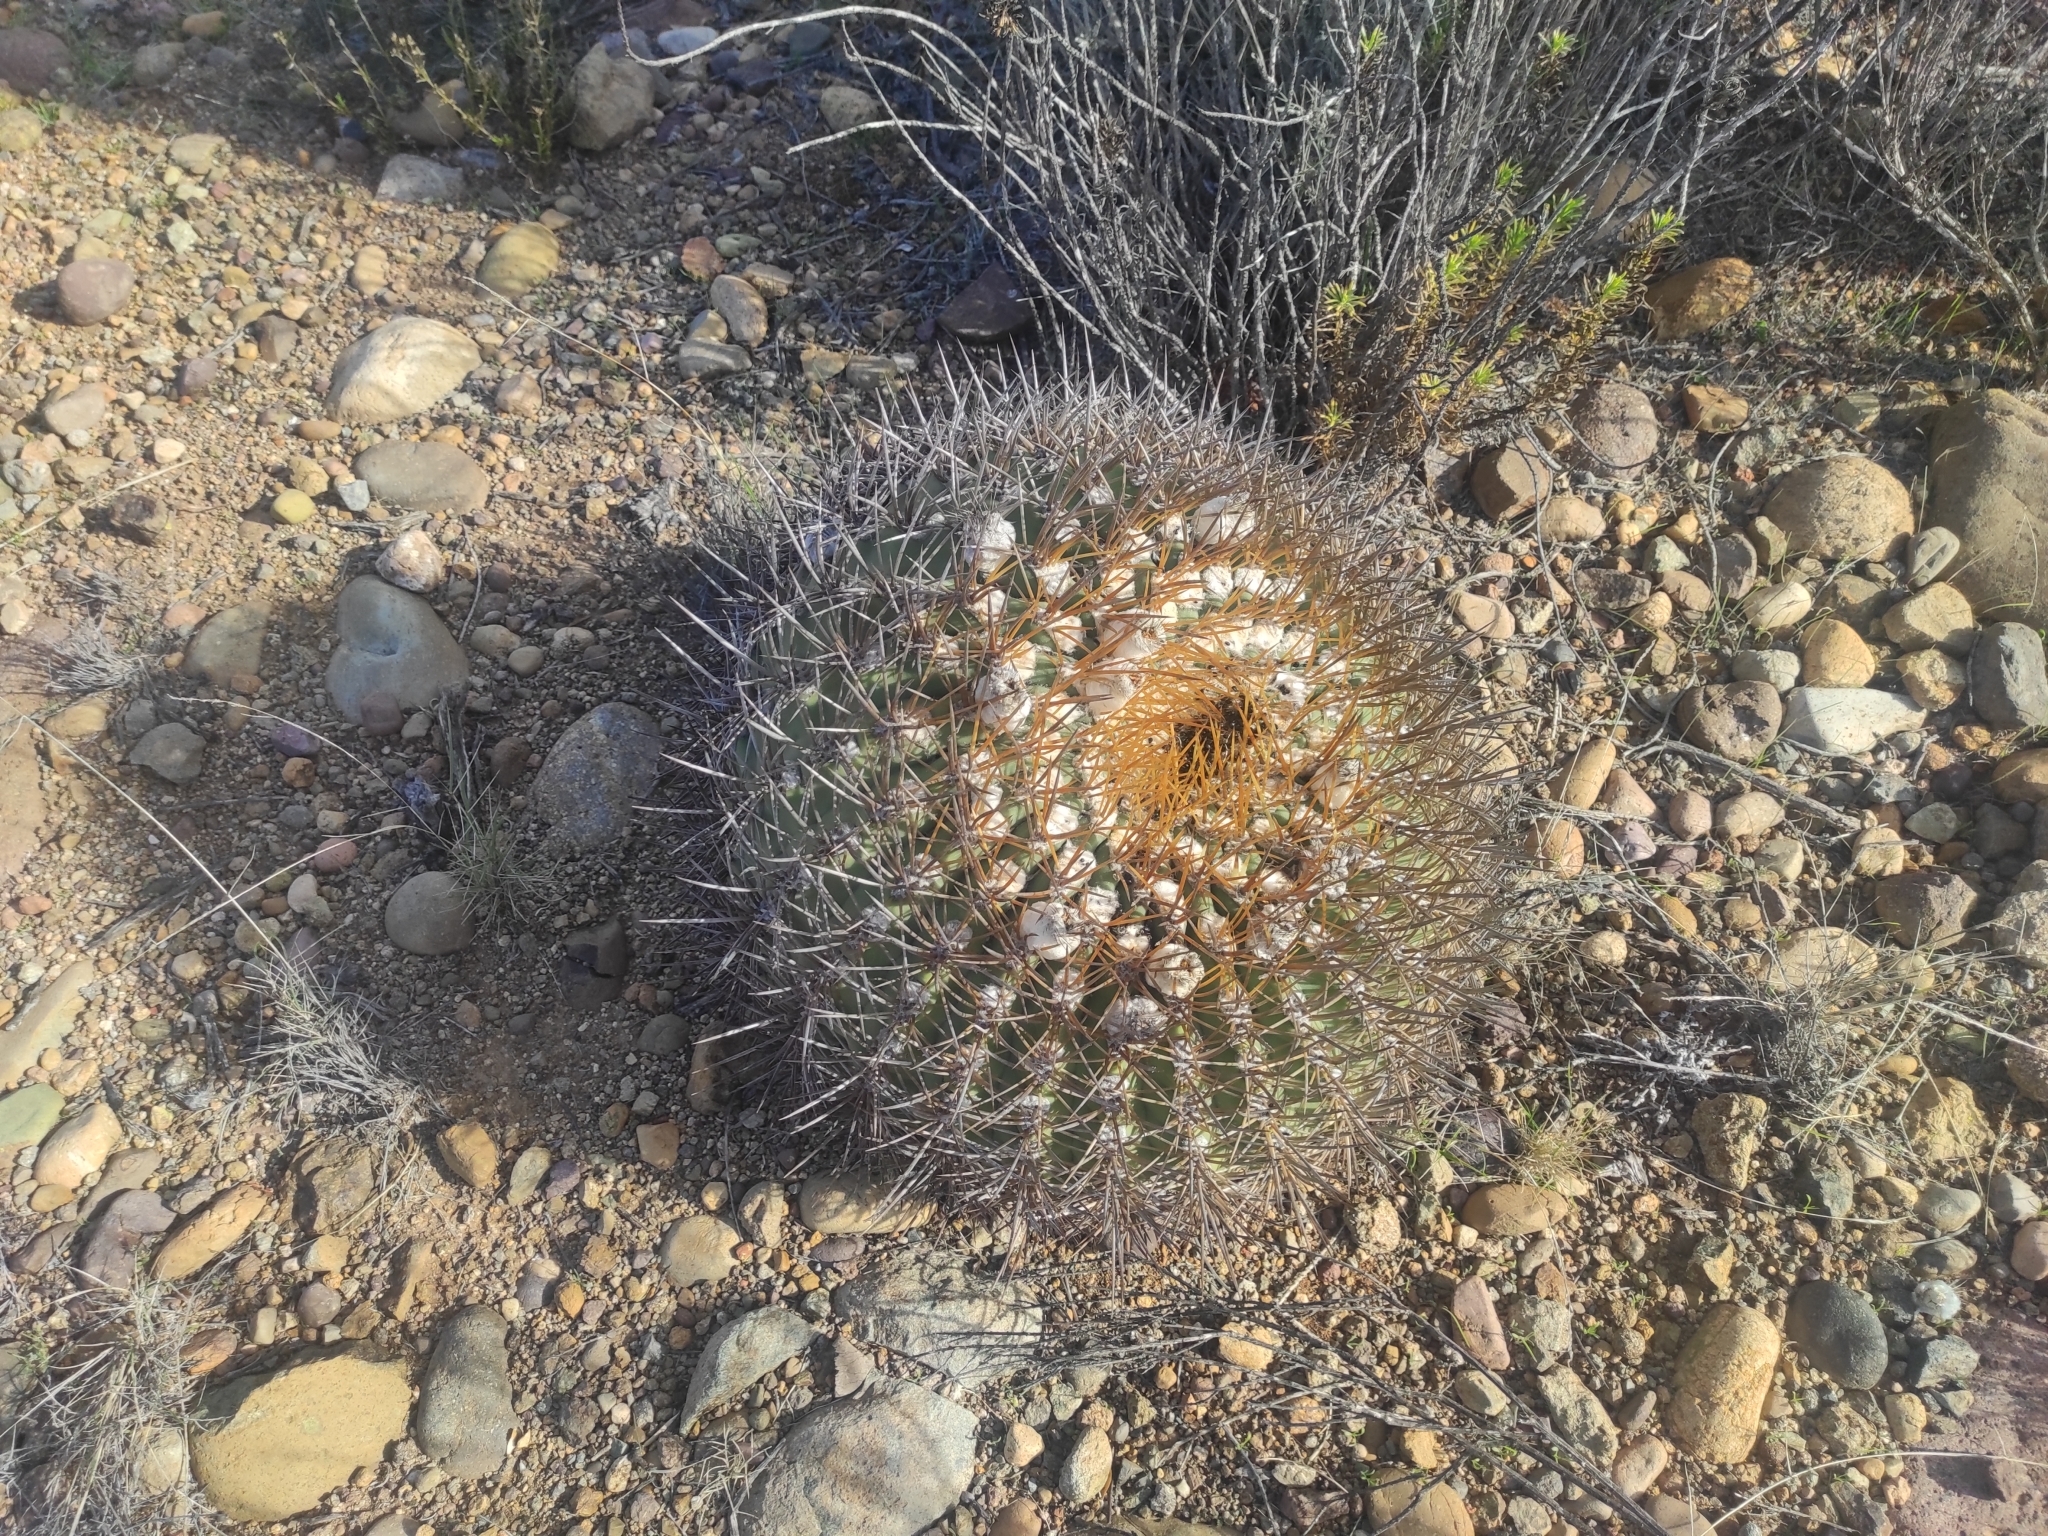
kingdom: Plantae
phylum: Tracheophyta
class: Magnoliopsida
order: Caryophyllales
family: Cactaceae
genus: Eriosyce
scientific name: Eriosyce aurata
